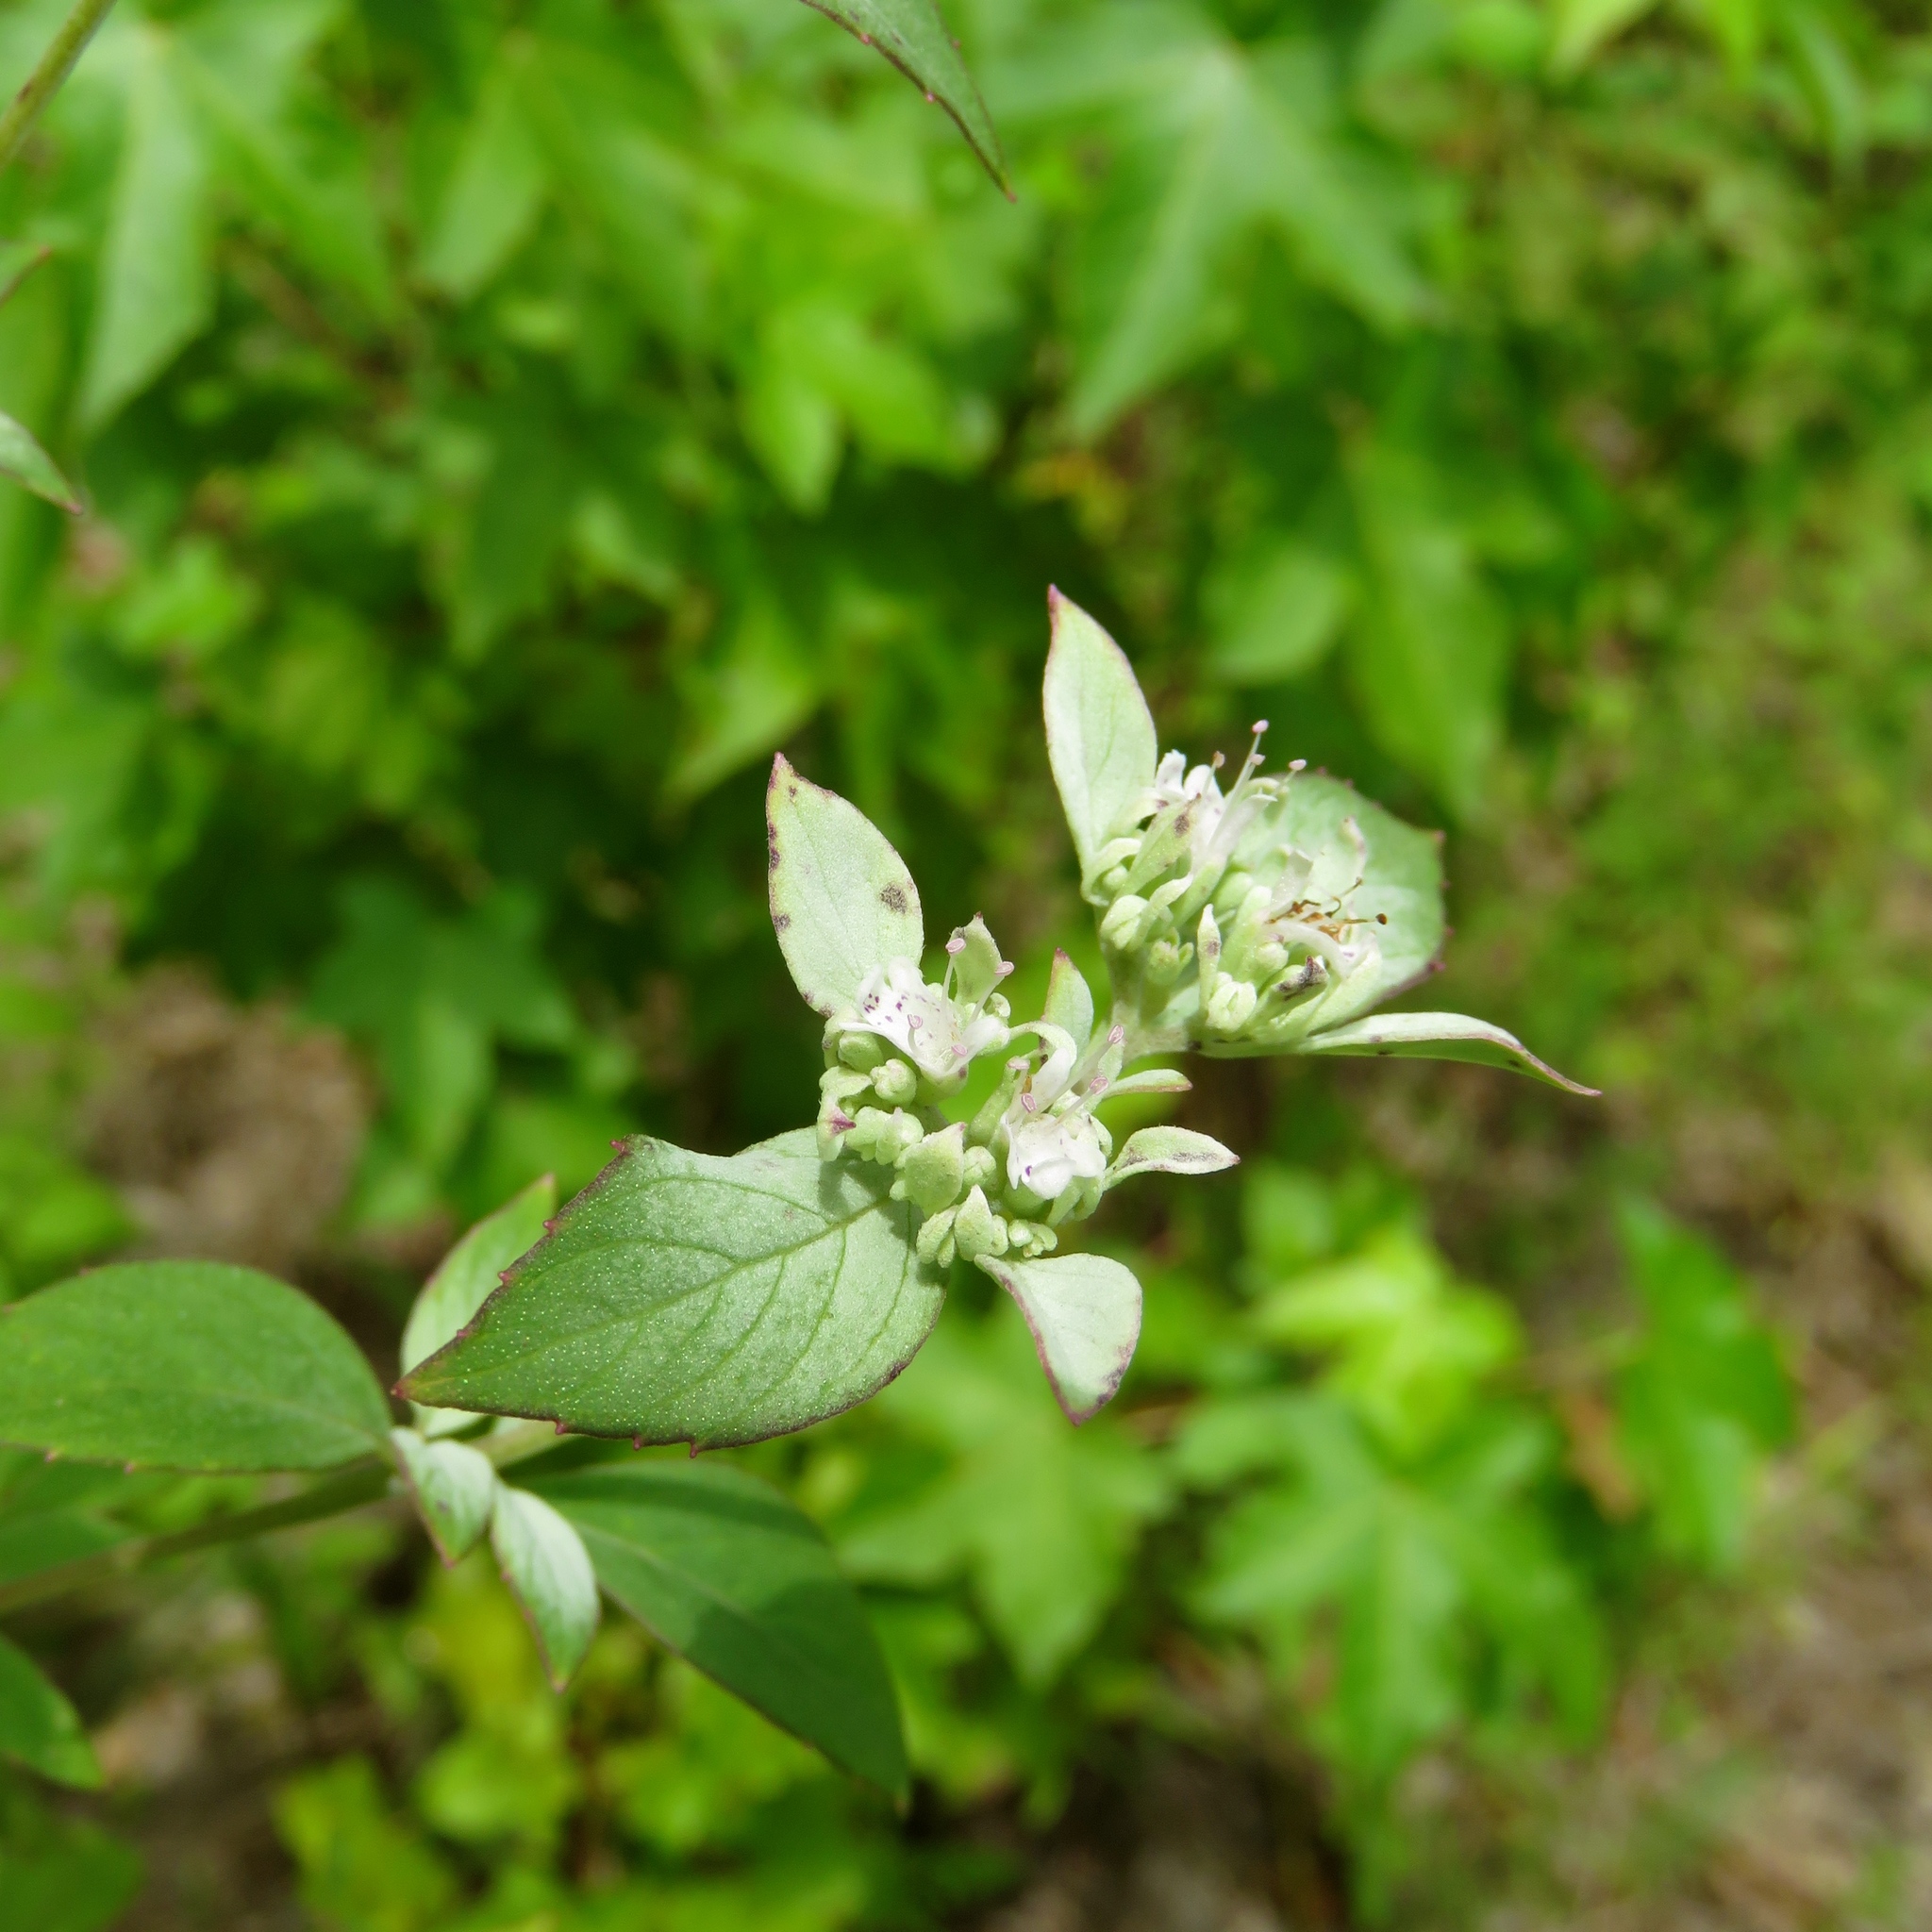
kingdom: Plantae
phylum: Tracheophyta
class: Magnoliopsida
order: Lamiales
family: Lamiaceae
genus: Pycnanthemum
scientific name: Pycnanthemum albescens
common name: White-leaf mountain-mint
